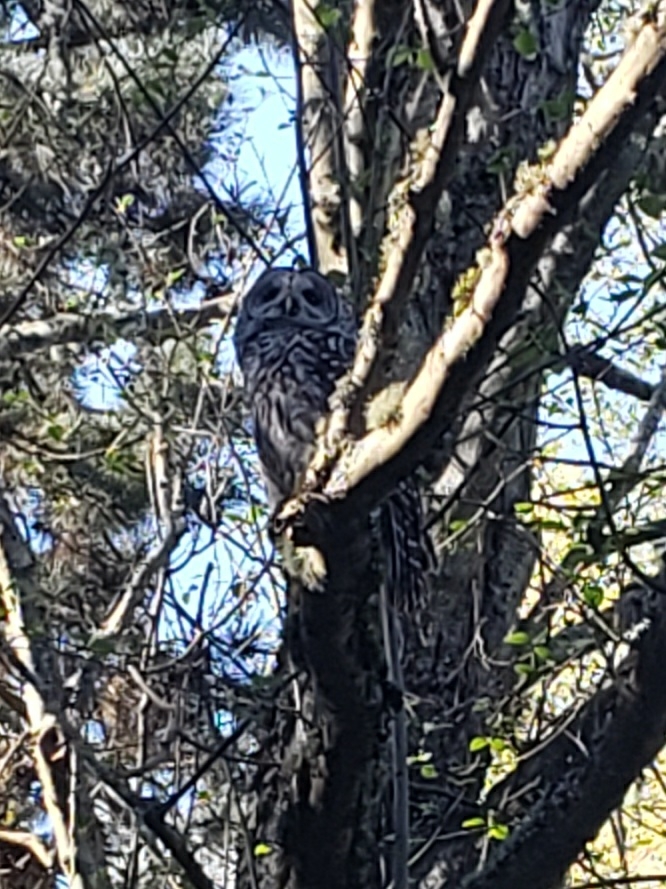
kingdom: Animalia
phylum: Chordata
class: Aves
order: Strigiformes
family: Strigidae
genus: Strix
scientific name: Strix varia
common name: Barred owl
